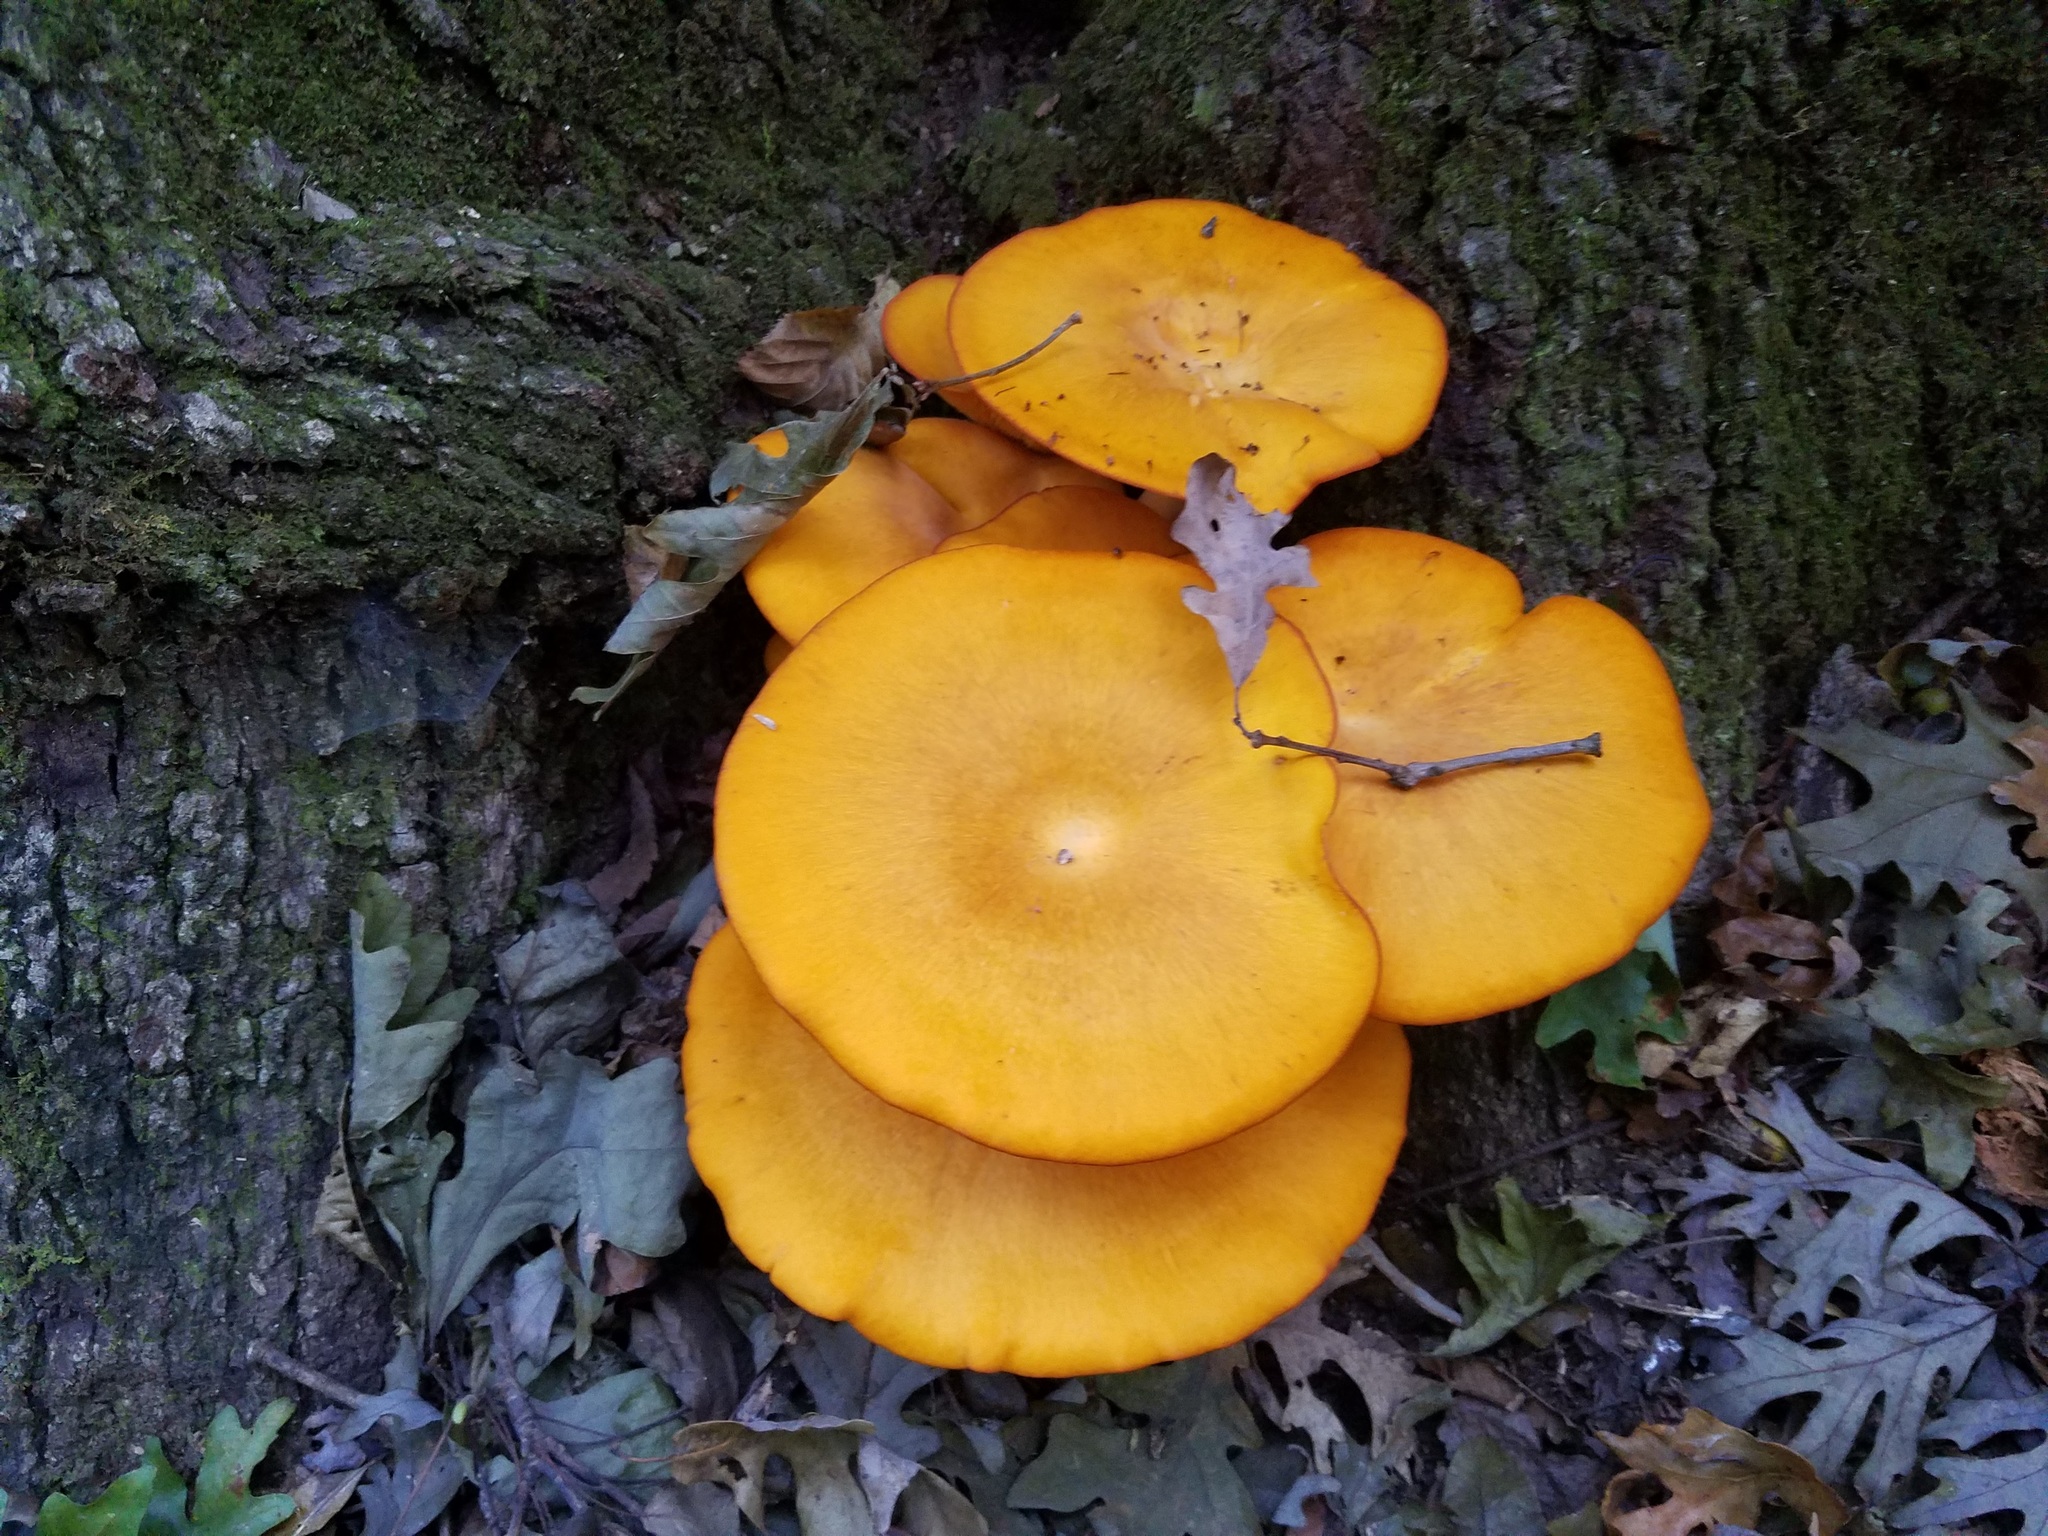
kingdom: Fungi
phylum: Basidiomycota
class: Agaricomycetes
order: Agaricales
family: Omphalotaceae
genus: Omphalotus
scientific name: Omphalotus illudens
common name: Jack o lantern
